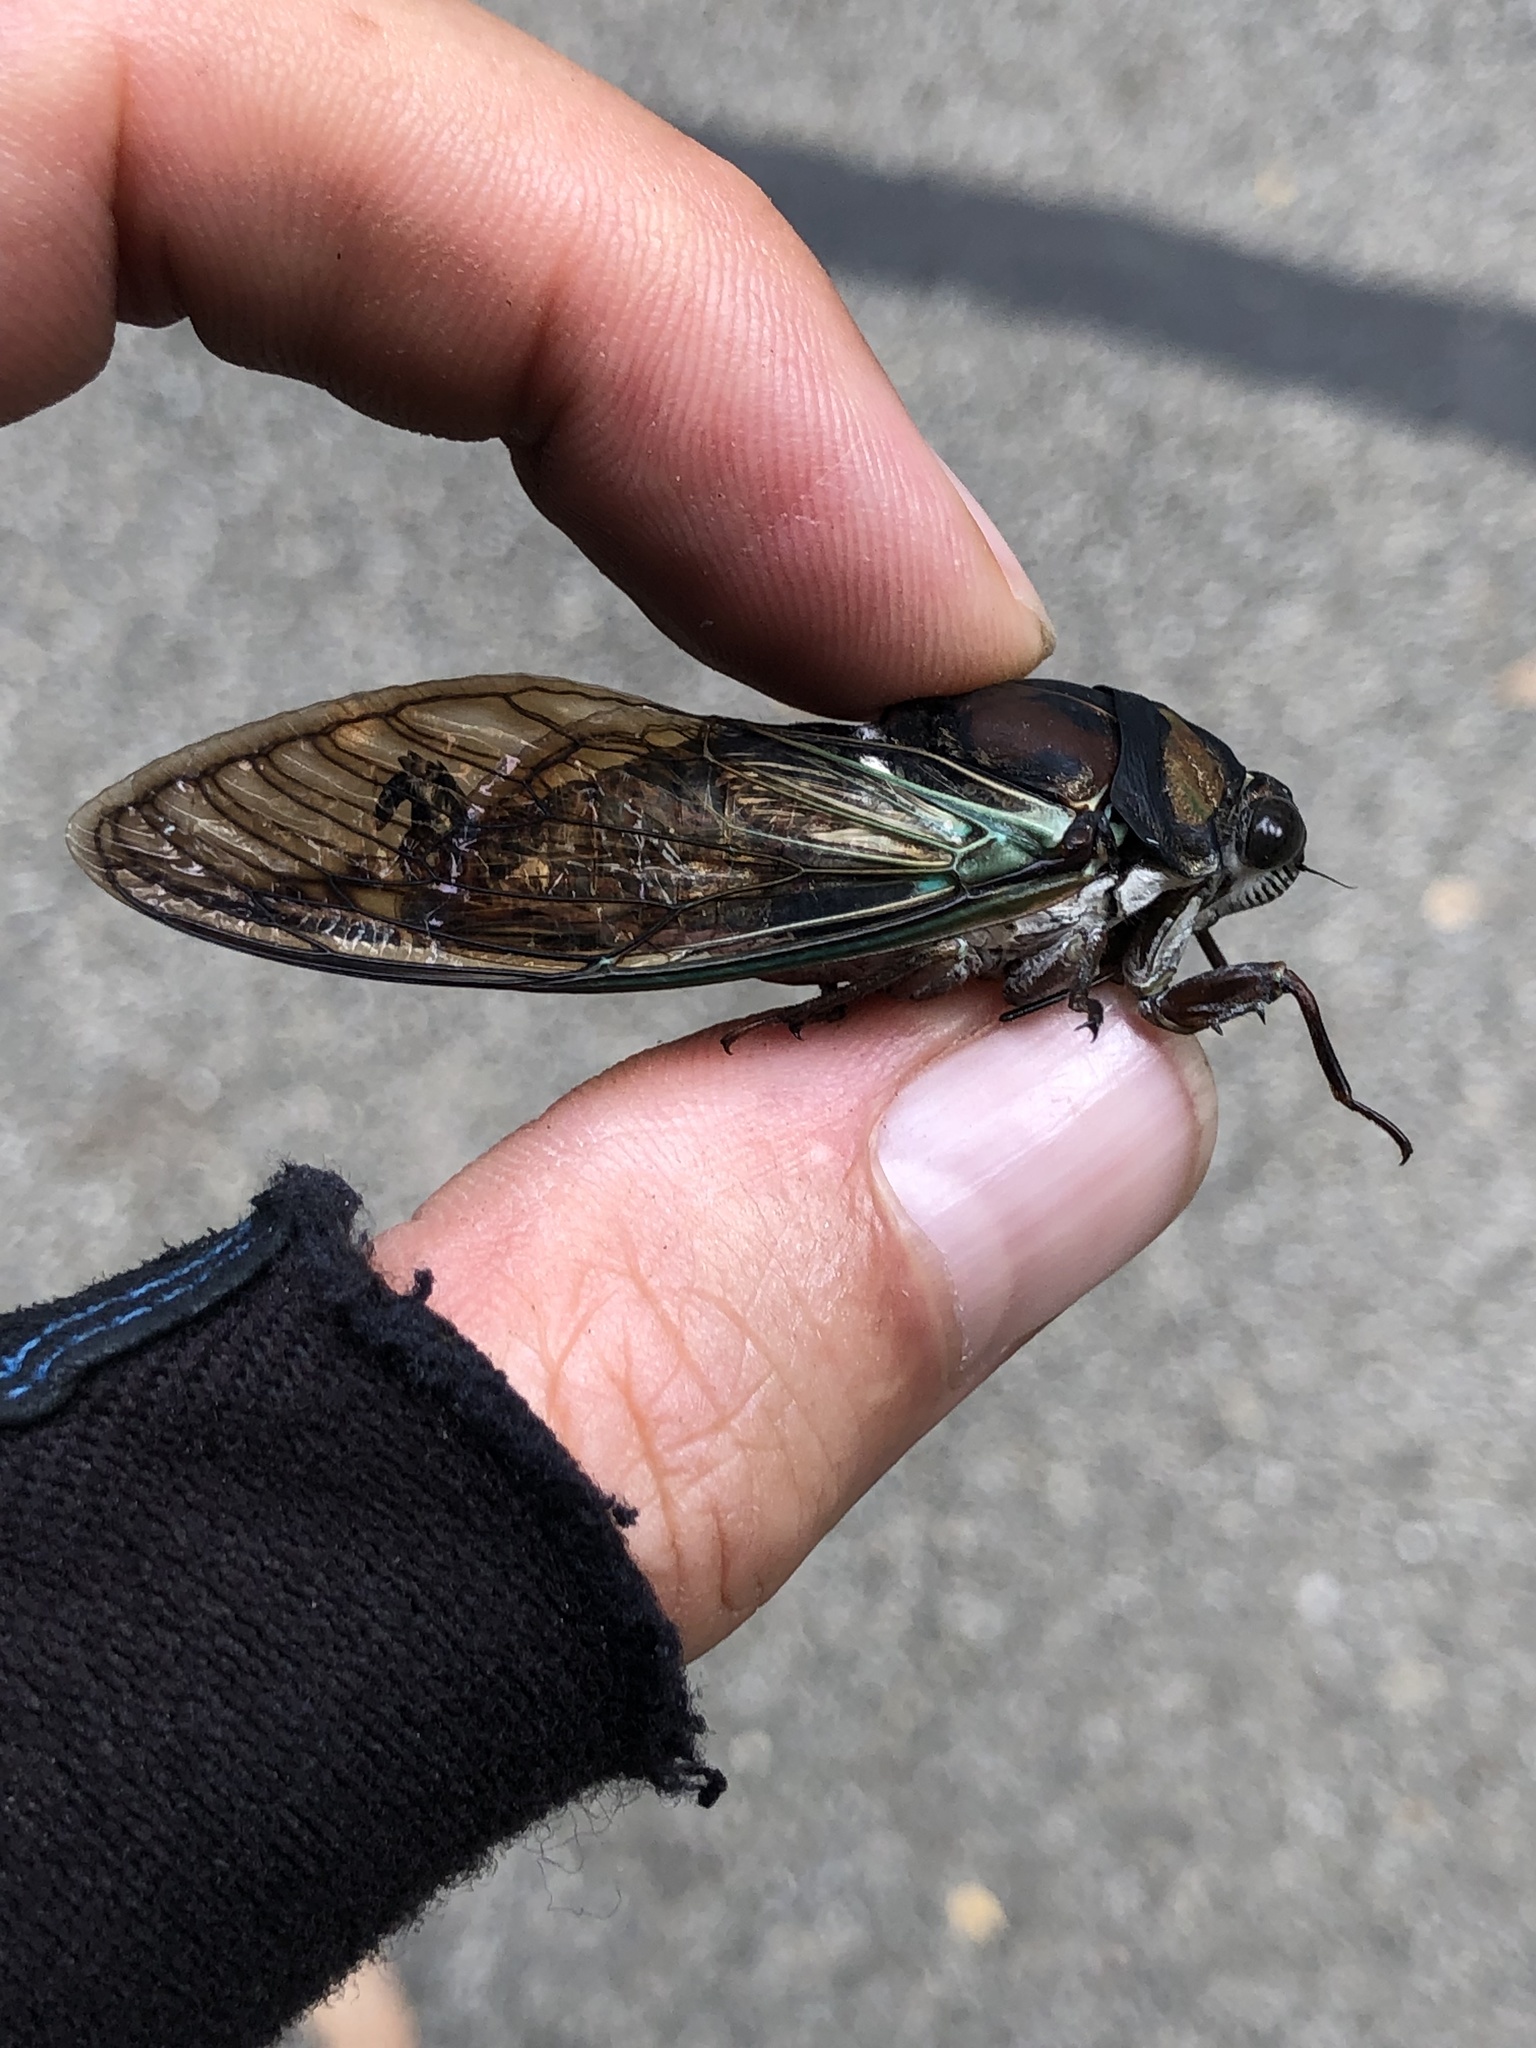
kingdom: Animalia
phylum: Arthropoda
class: Insecta
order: Hemiptera
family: Cicadidae
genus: Neotibicen
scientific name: Neotibicen lyricen
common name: Lyric cicada
